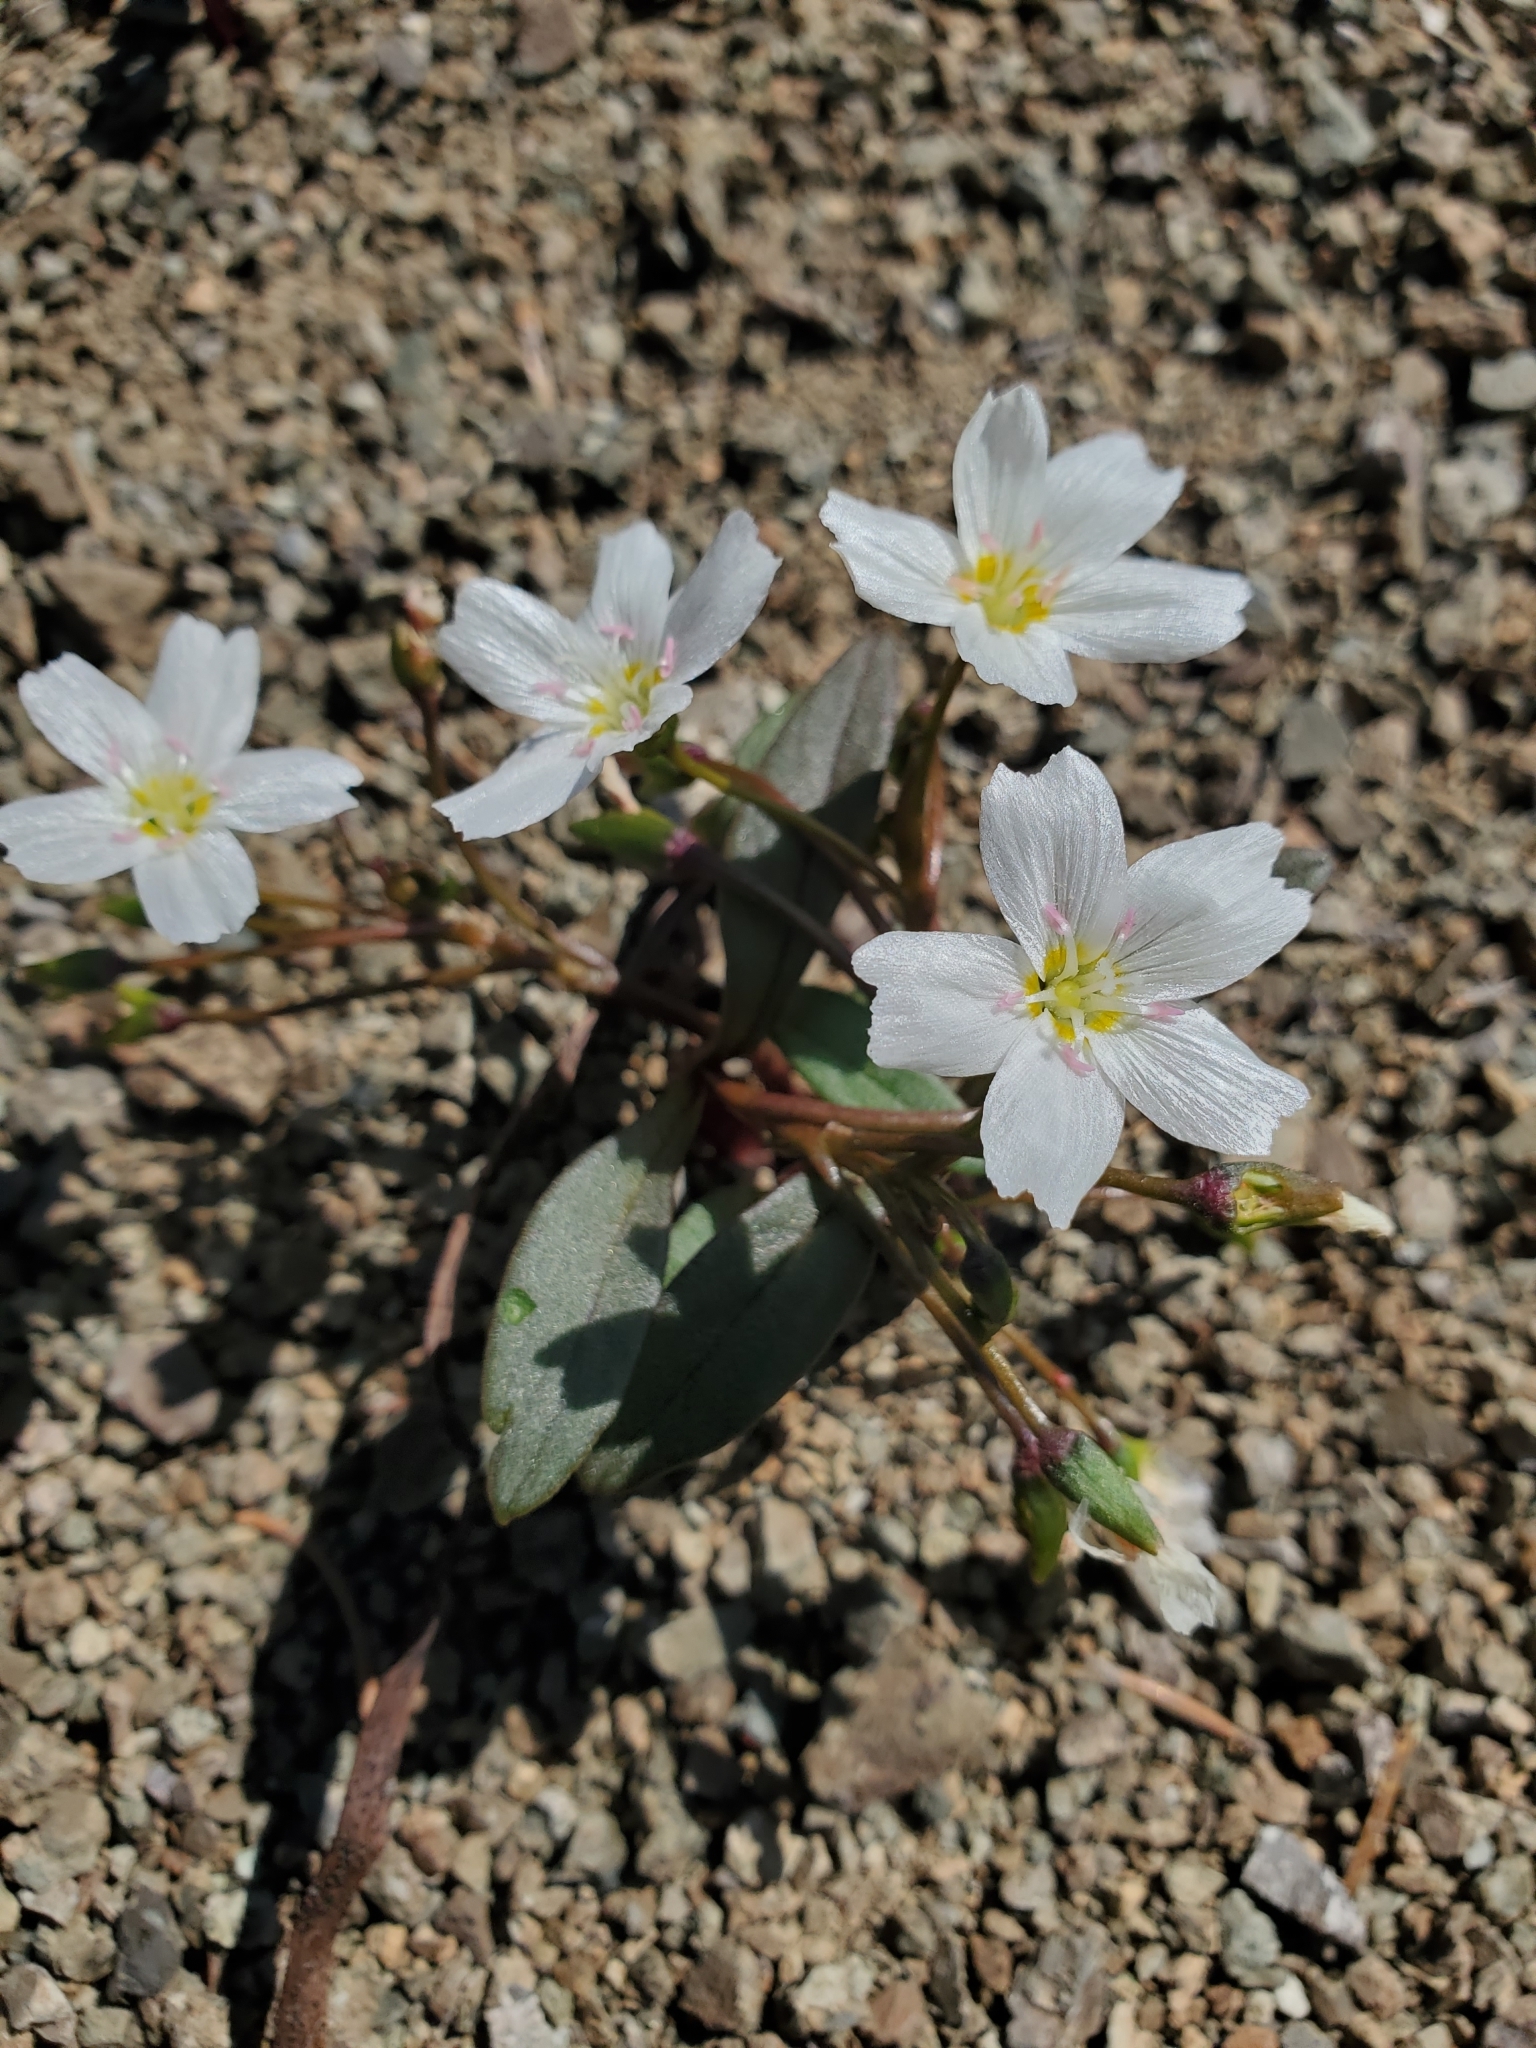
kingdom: Plantae
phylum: Tracheophyta
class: Magnoliopsida
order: Caryophyllales
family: Montiaceae
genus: Claytonia
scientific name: Claytonia multiscapa
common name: Lanceleaf springbeauty
